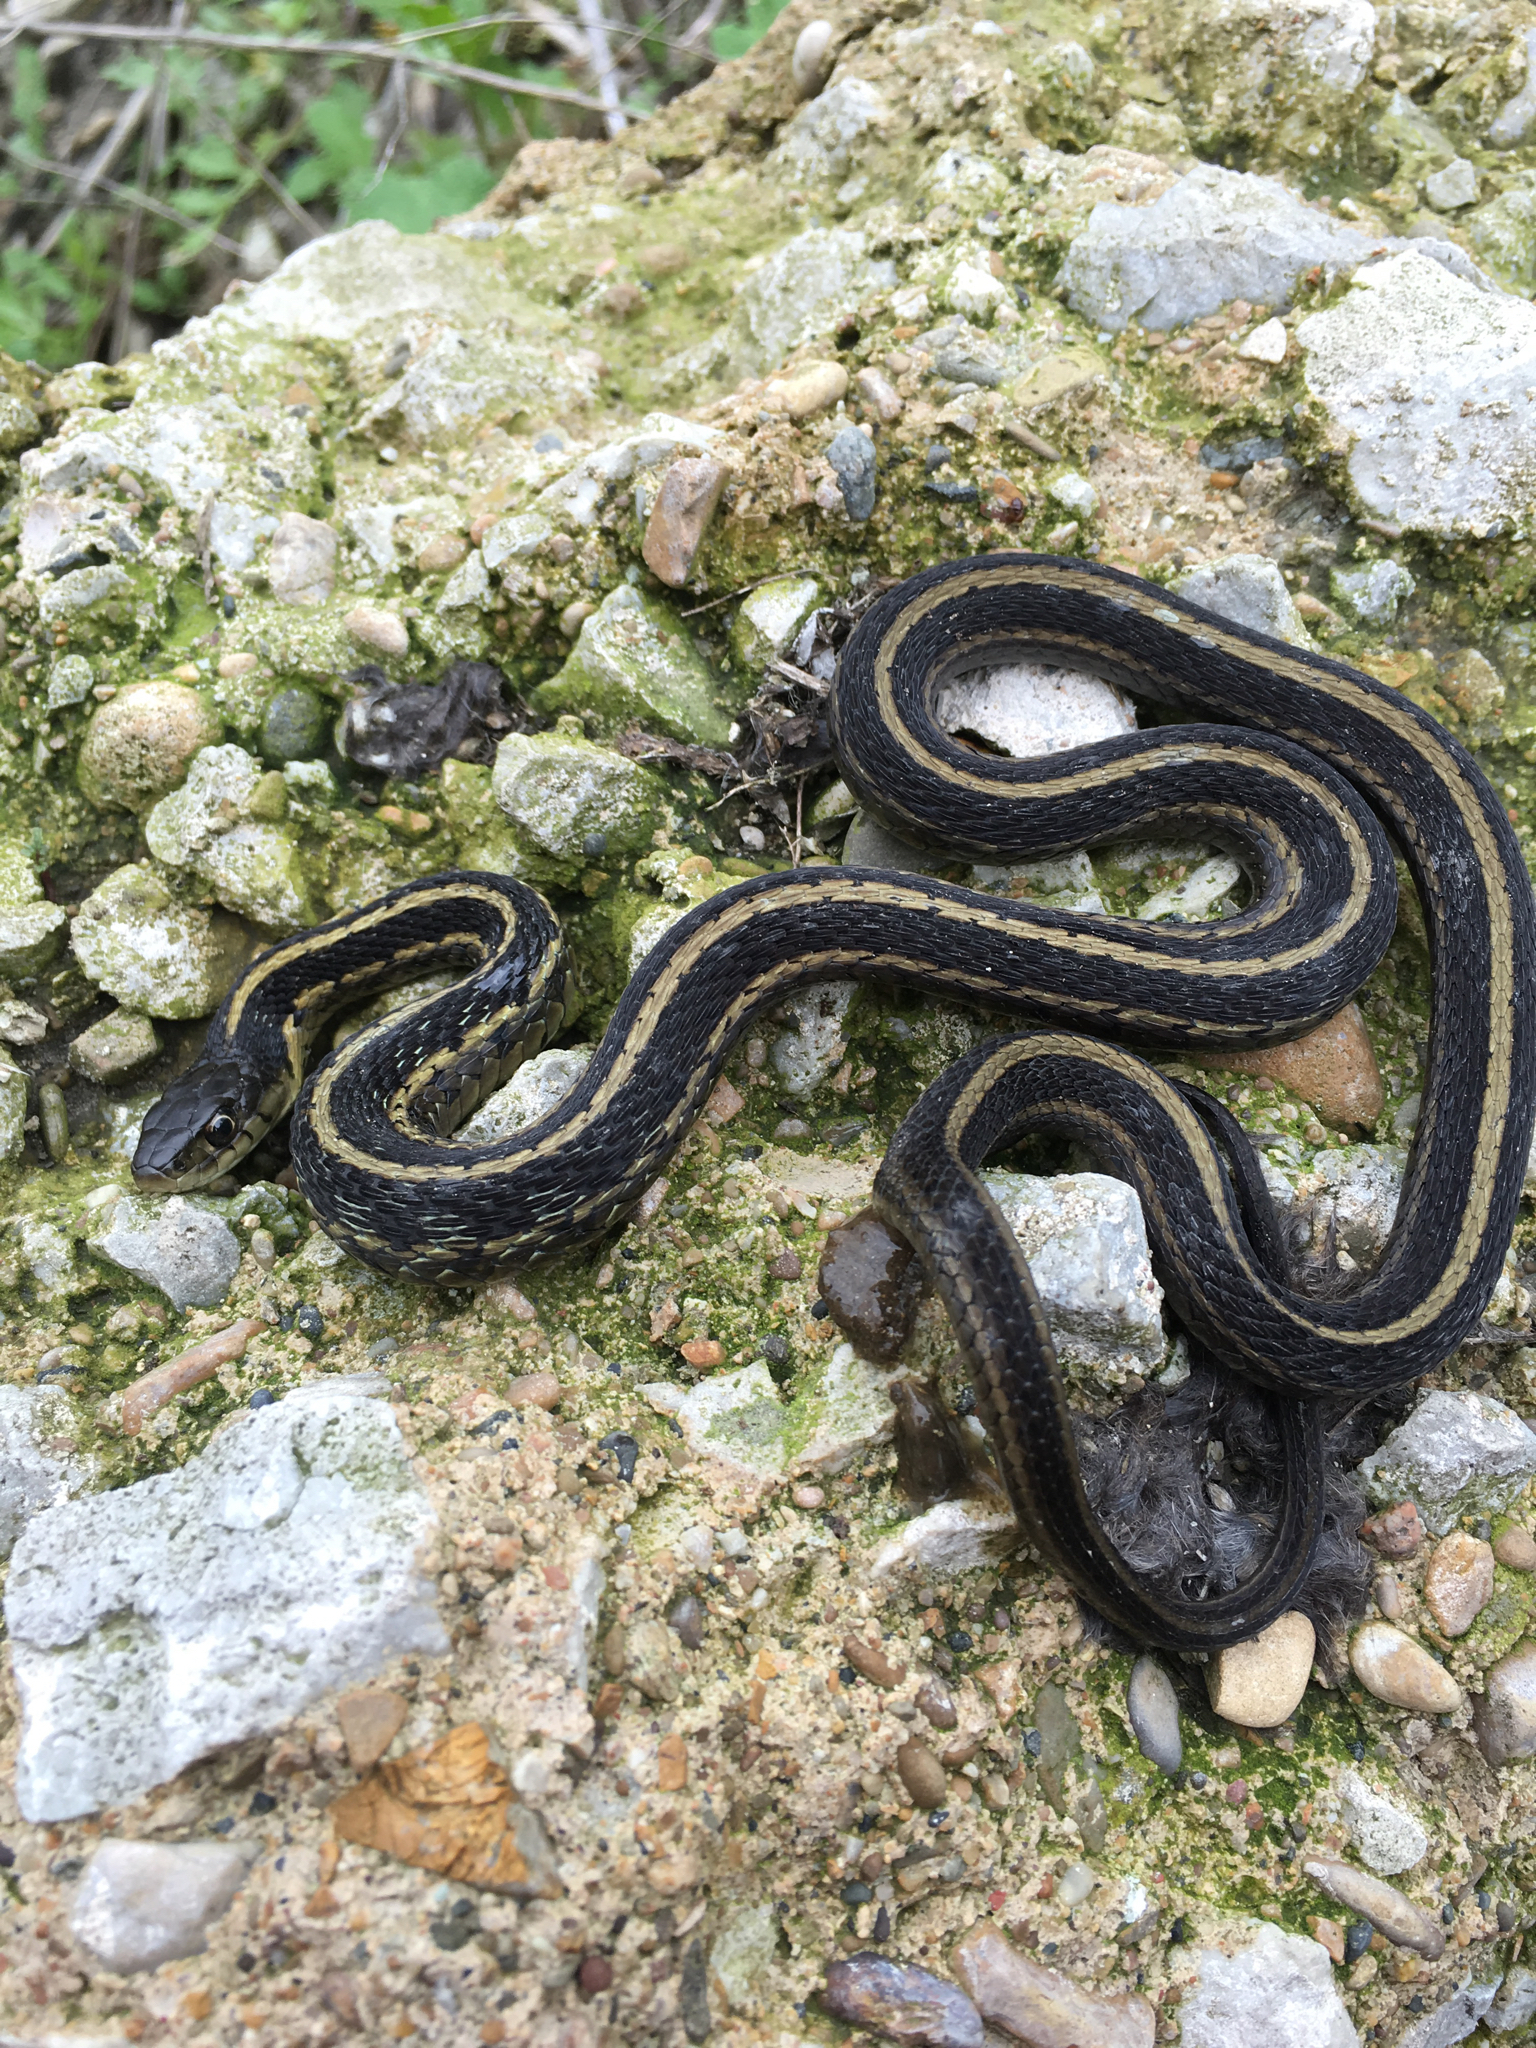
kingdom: Animalia
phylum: Chordata
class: Squamata
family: Colubridae
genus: Thamnophis
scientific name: Thamnophis radix
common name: Plains garter snake
